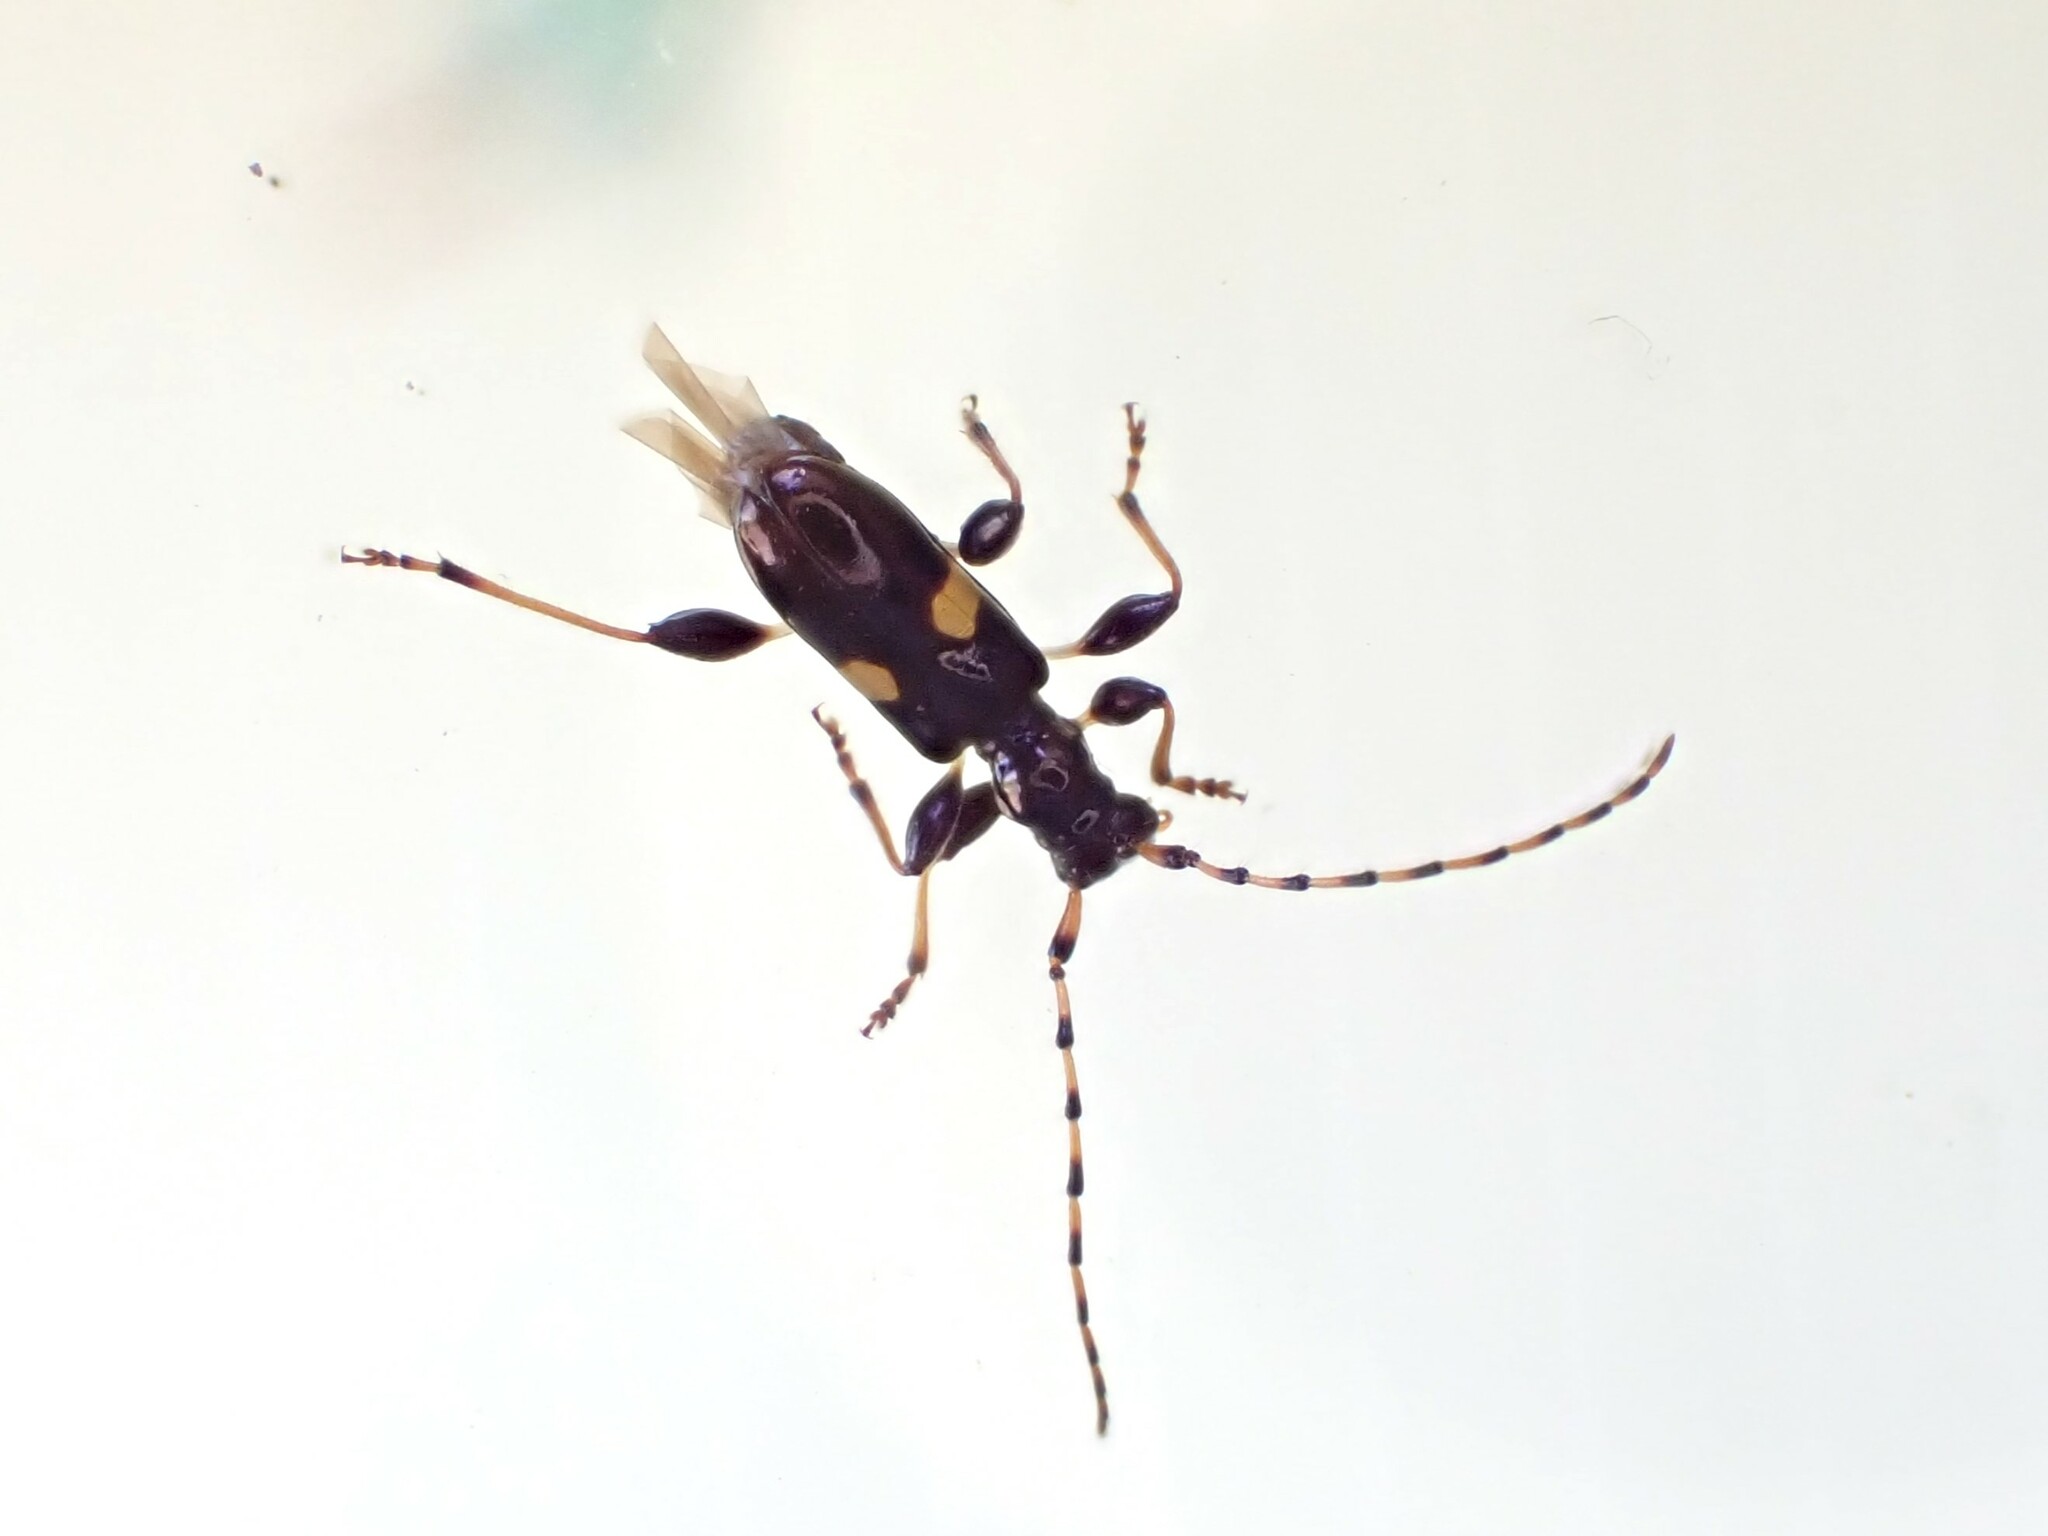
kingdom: Animalia
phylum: Arthropoda
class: Insecta
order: Coleoptera
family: Cerambycidae
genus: Zorion
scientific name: Zorion guttigerum
